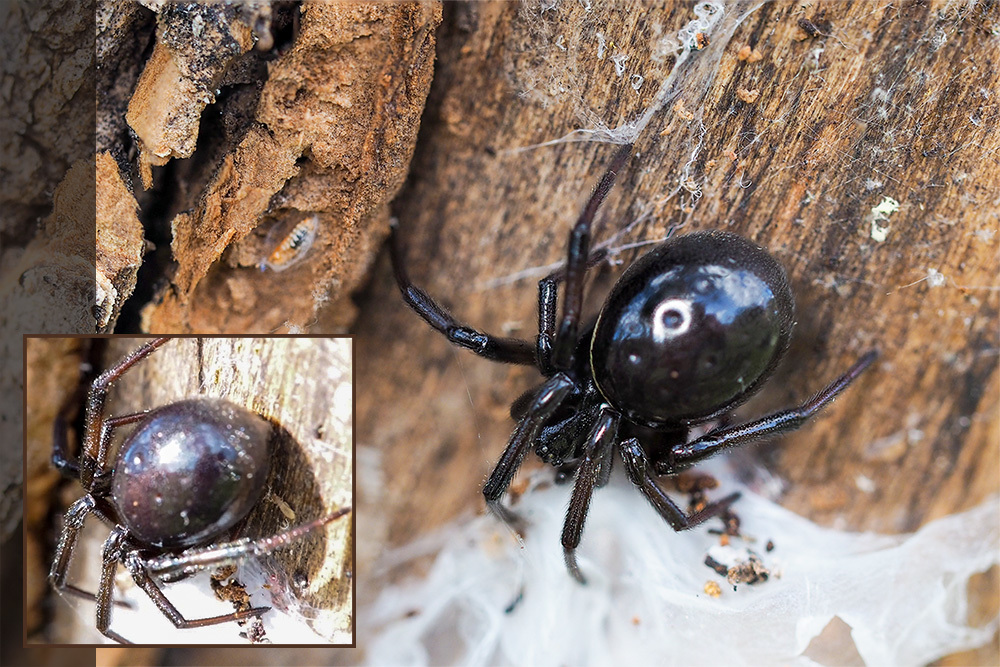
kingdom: Animalia
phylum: Arthropoda
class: Arachnida
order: Araneae
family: Theridiidae
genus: Steatoda
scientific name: Steatoda paykulliana
